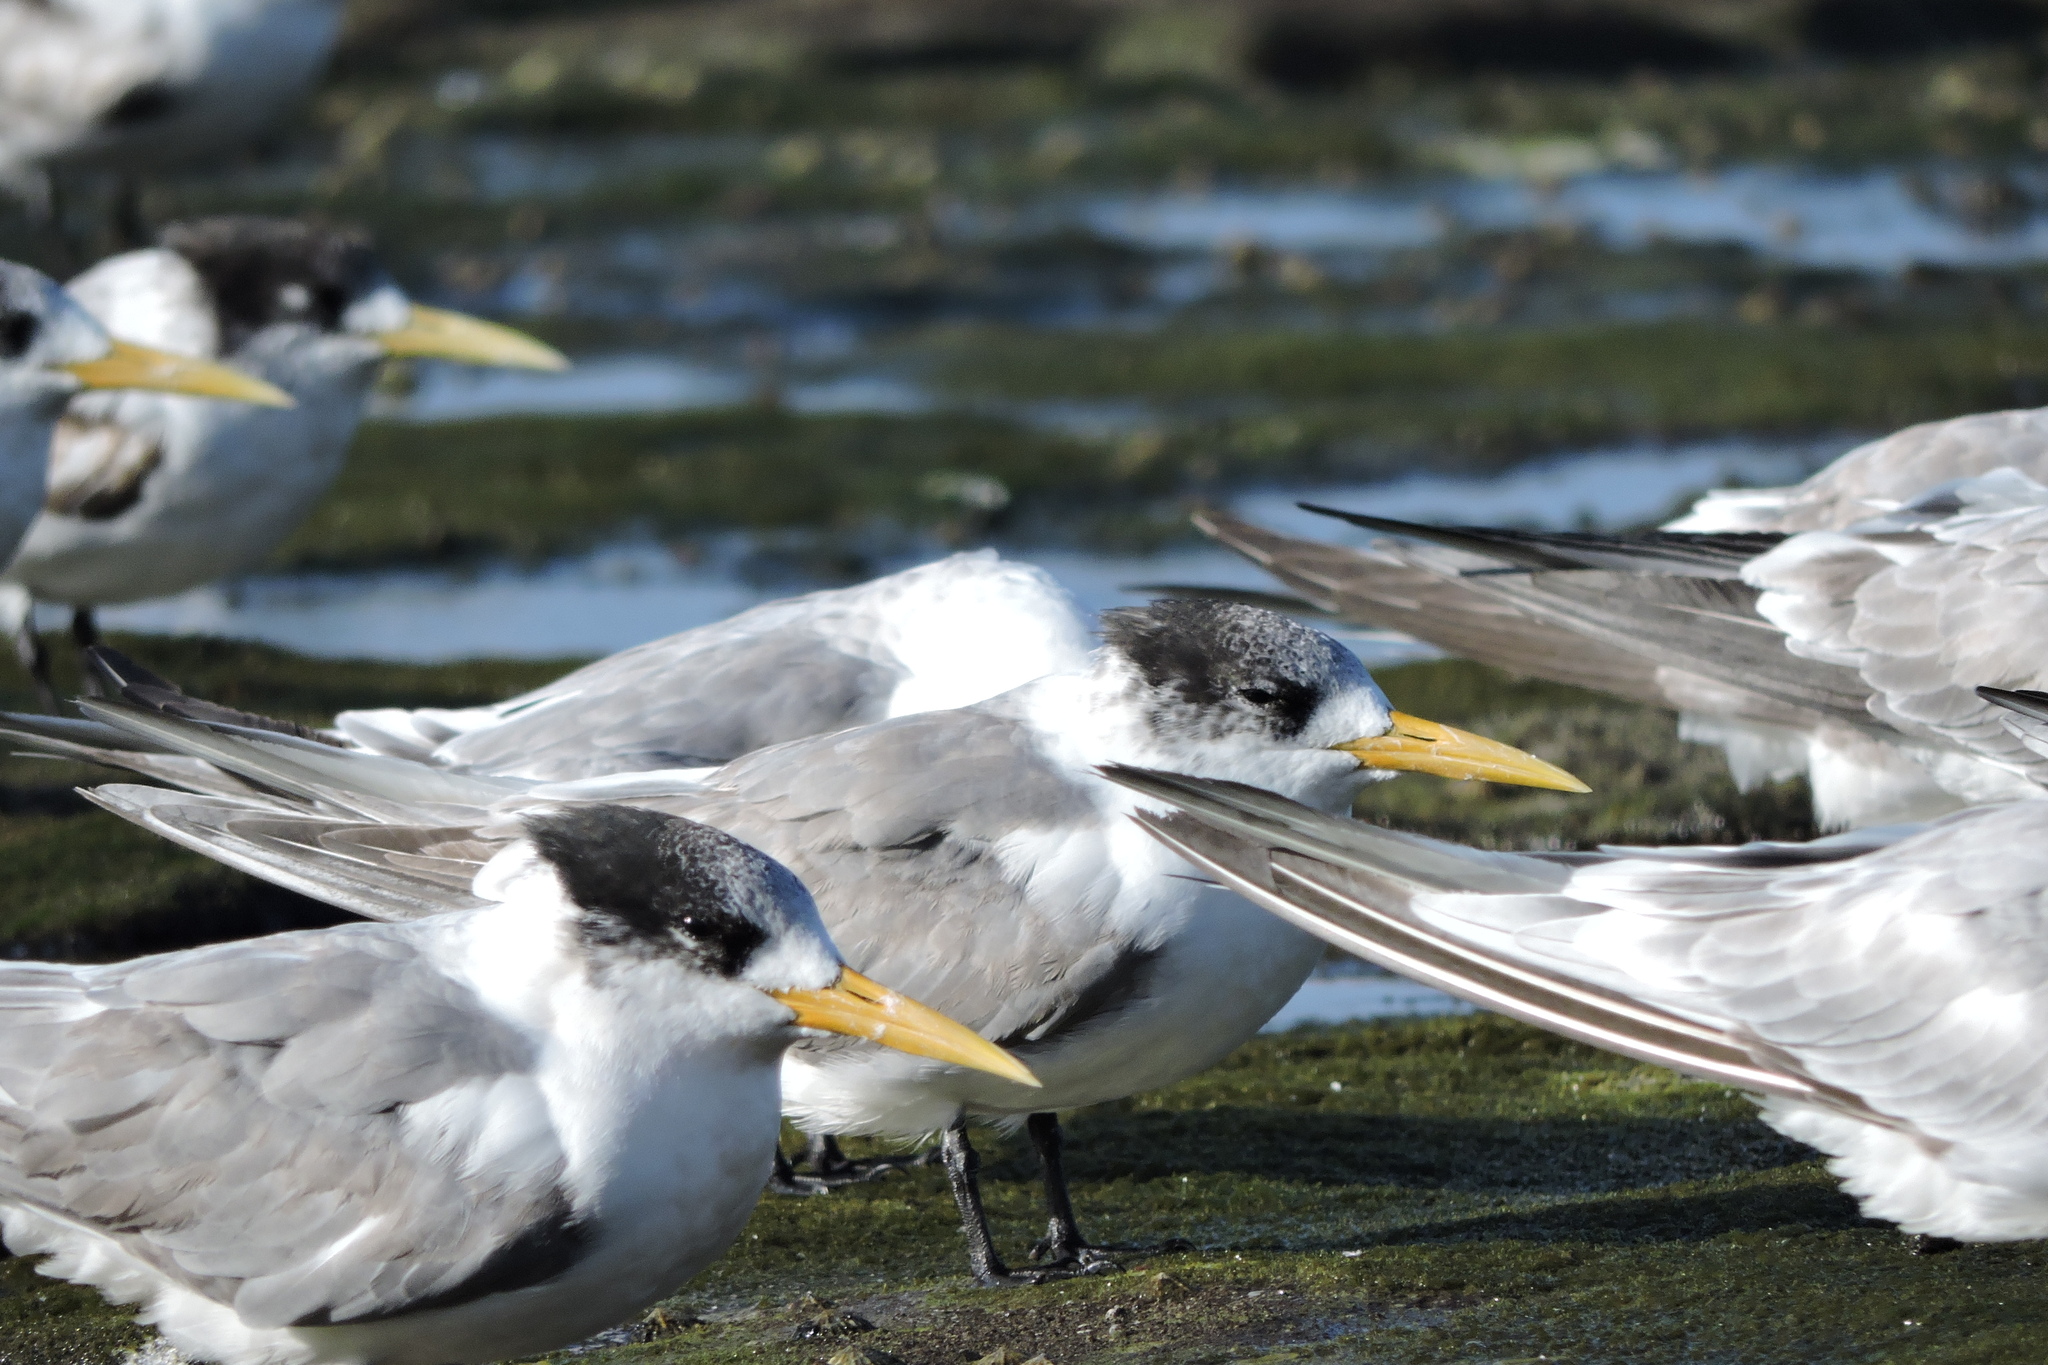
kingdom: Animalia
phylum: Chordata
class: Aves
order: Charadriiformes
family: Laridae
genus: Thalasseus
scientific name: Thalasseus bergii
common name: Greater crested tern
